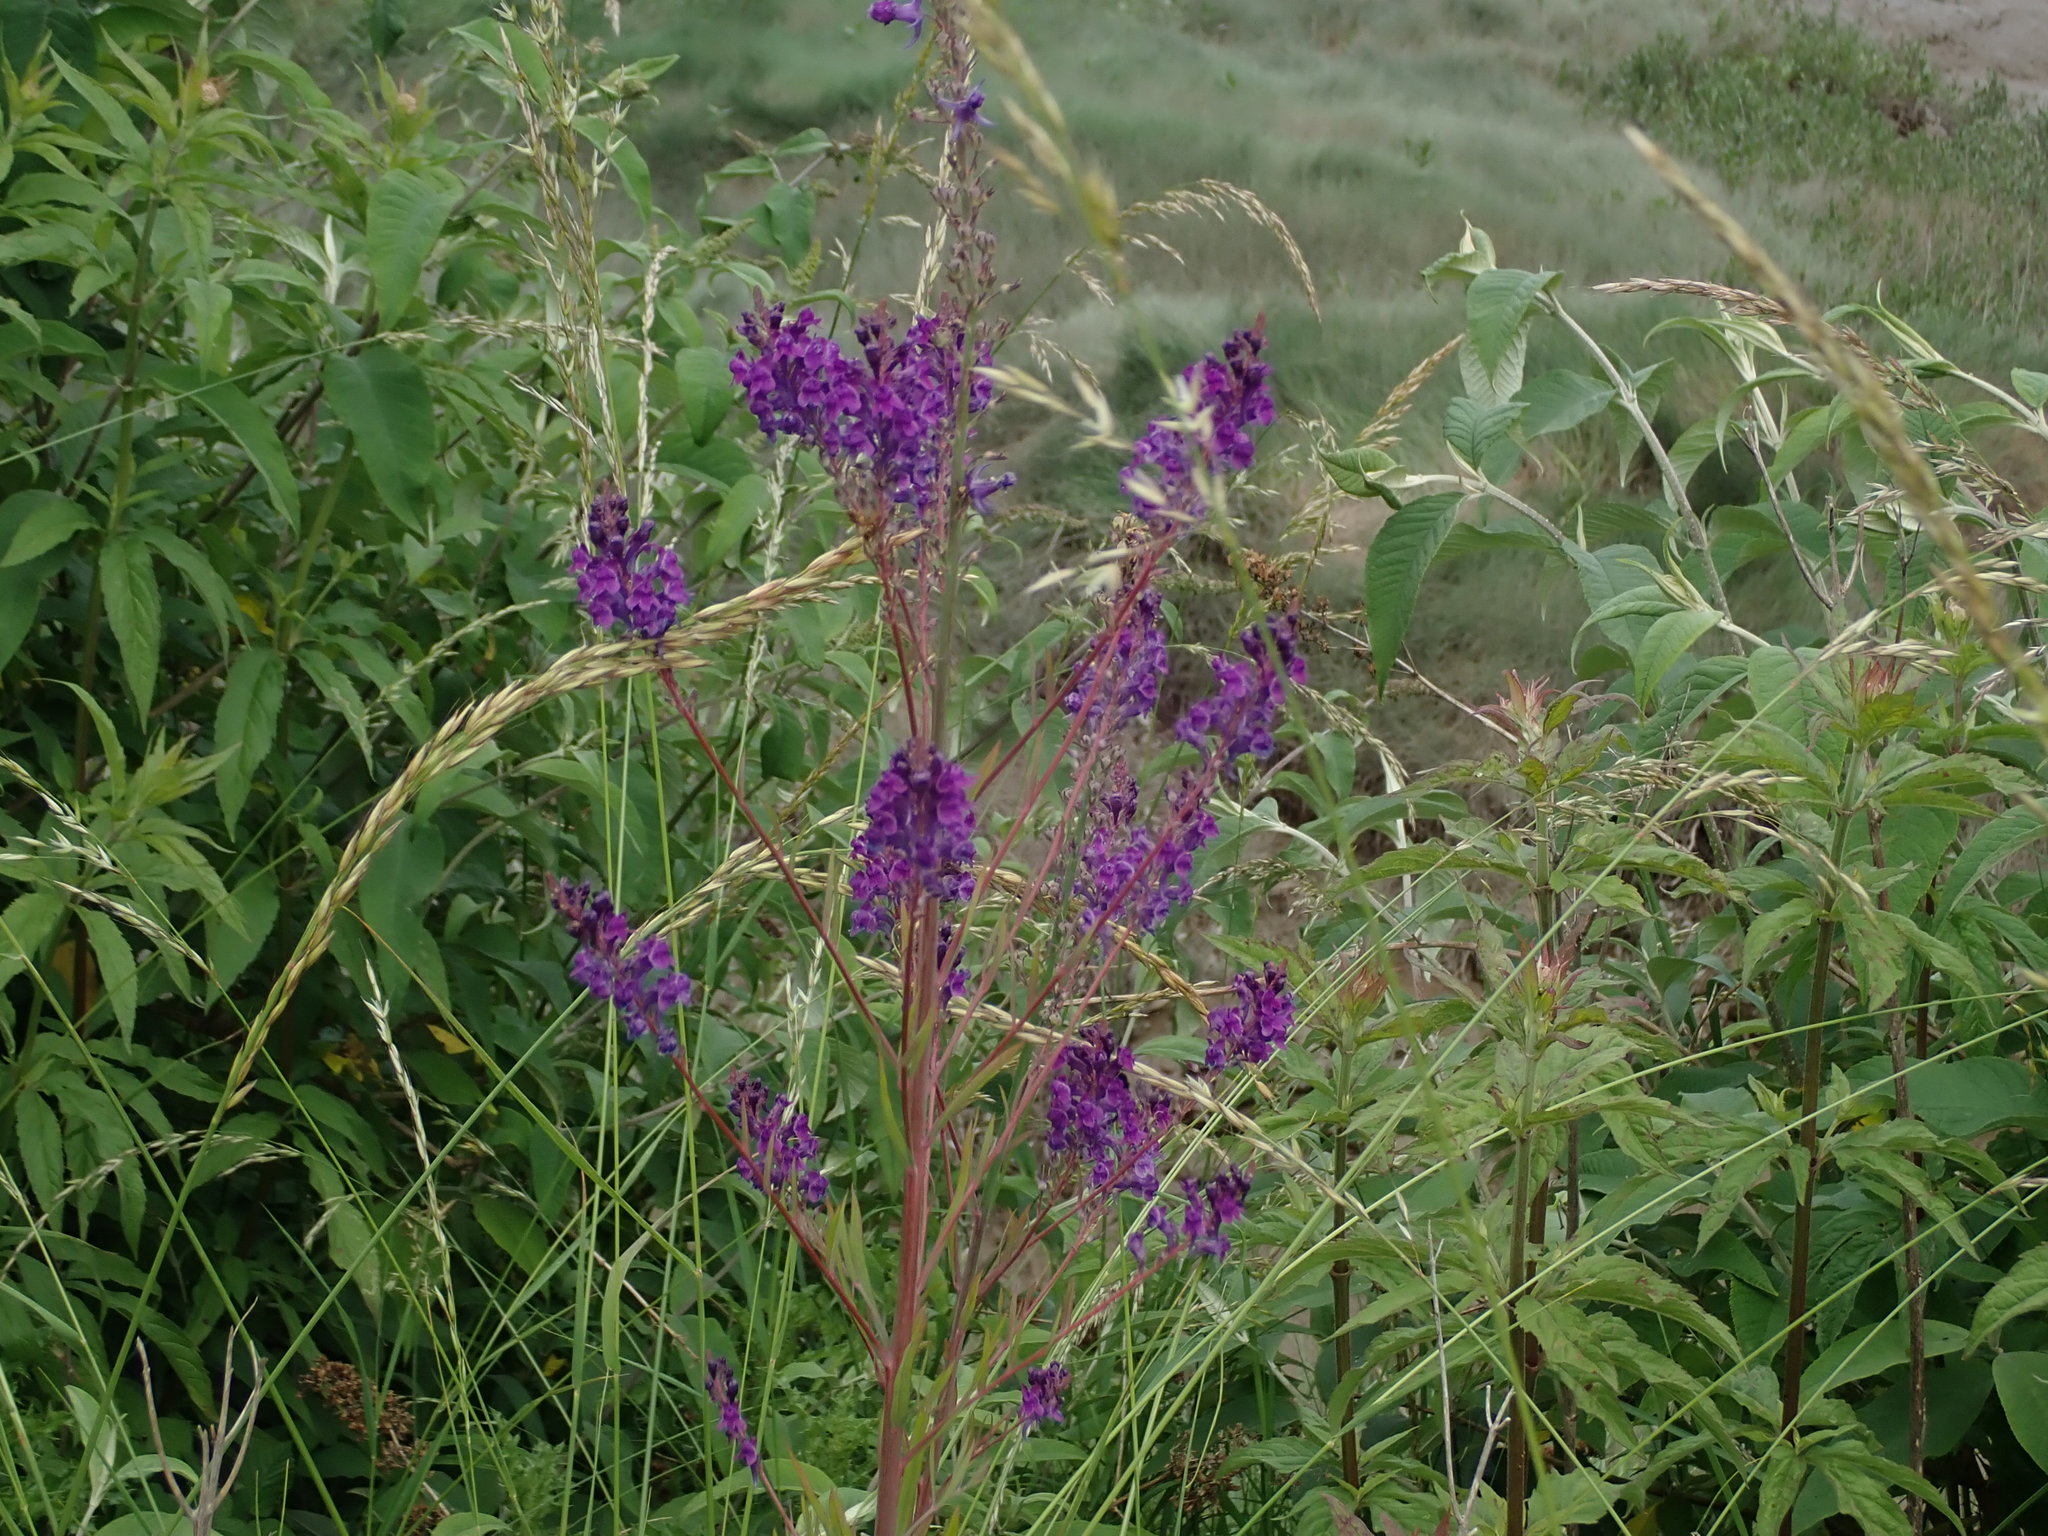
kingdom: Plantae
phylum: Tracheophyta
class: Magnoliopsida
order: Lamiales
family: Plantaginaceae
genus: Linaria
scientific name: Linaria purpurea
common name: Purple toadflax
